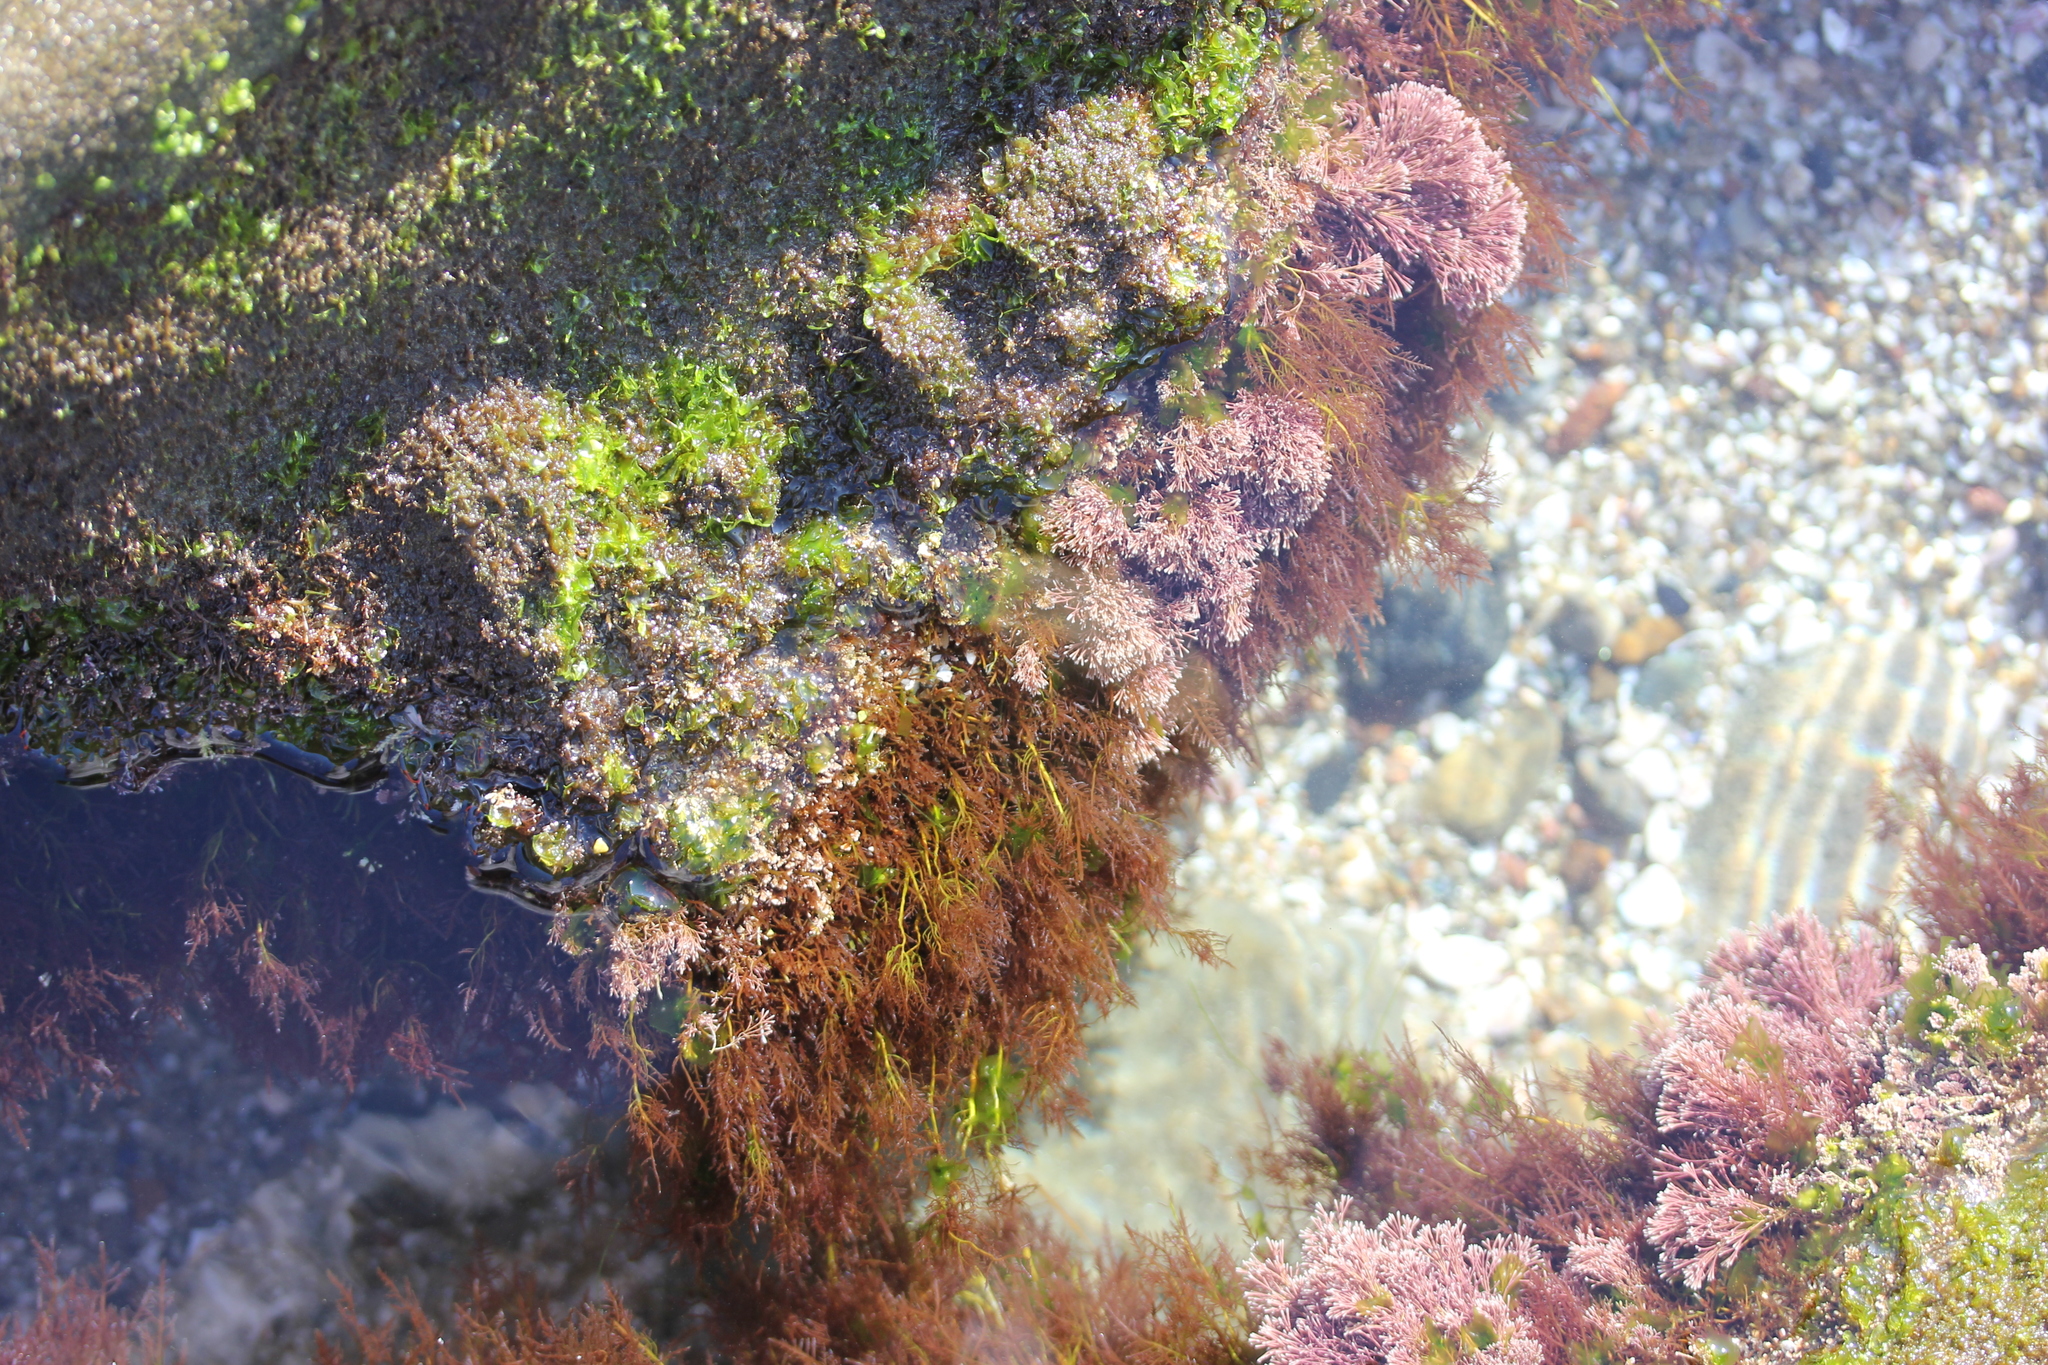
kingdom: Plantae
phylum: Rhodophyta
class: Florideophyceae
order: Gelidiales
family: Pterocladiaceae
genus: Pterocladiella
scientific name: Pterocladiella capillacea
